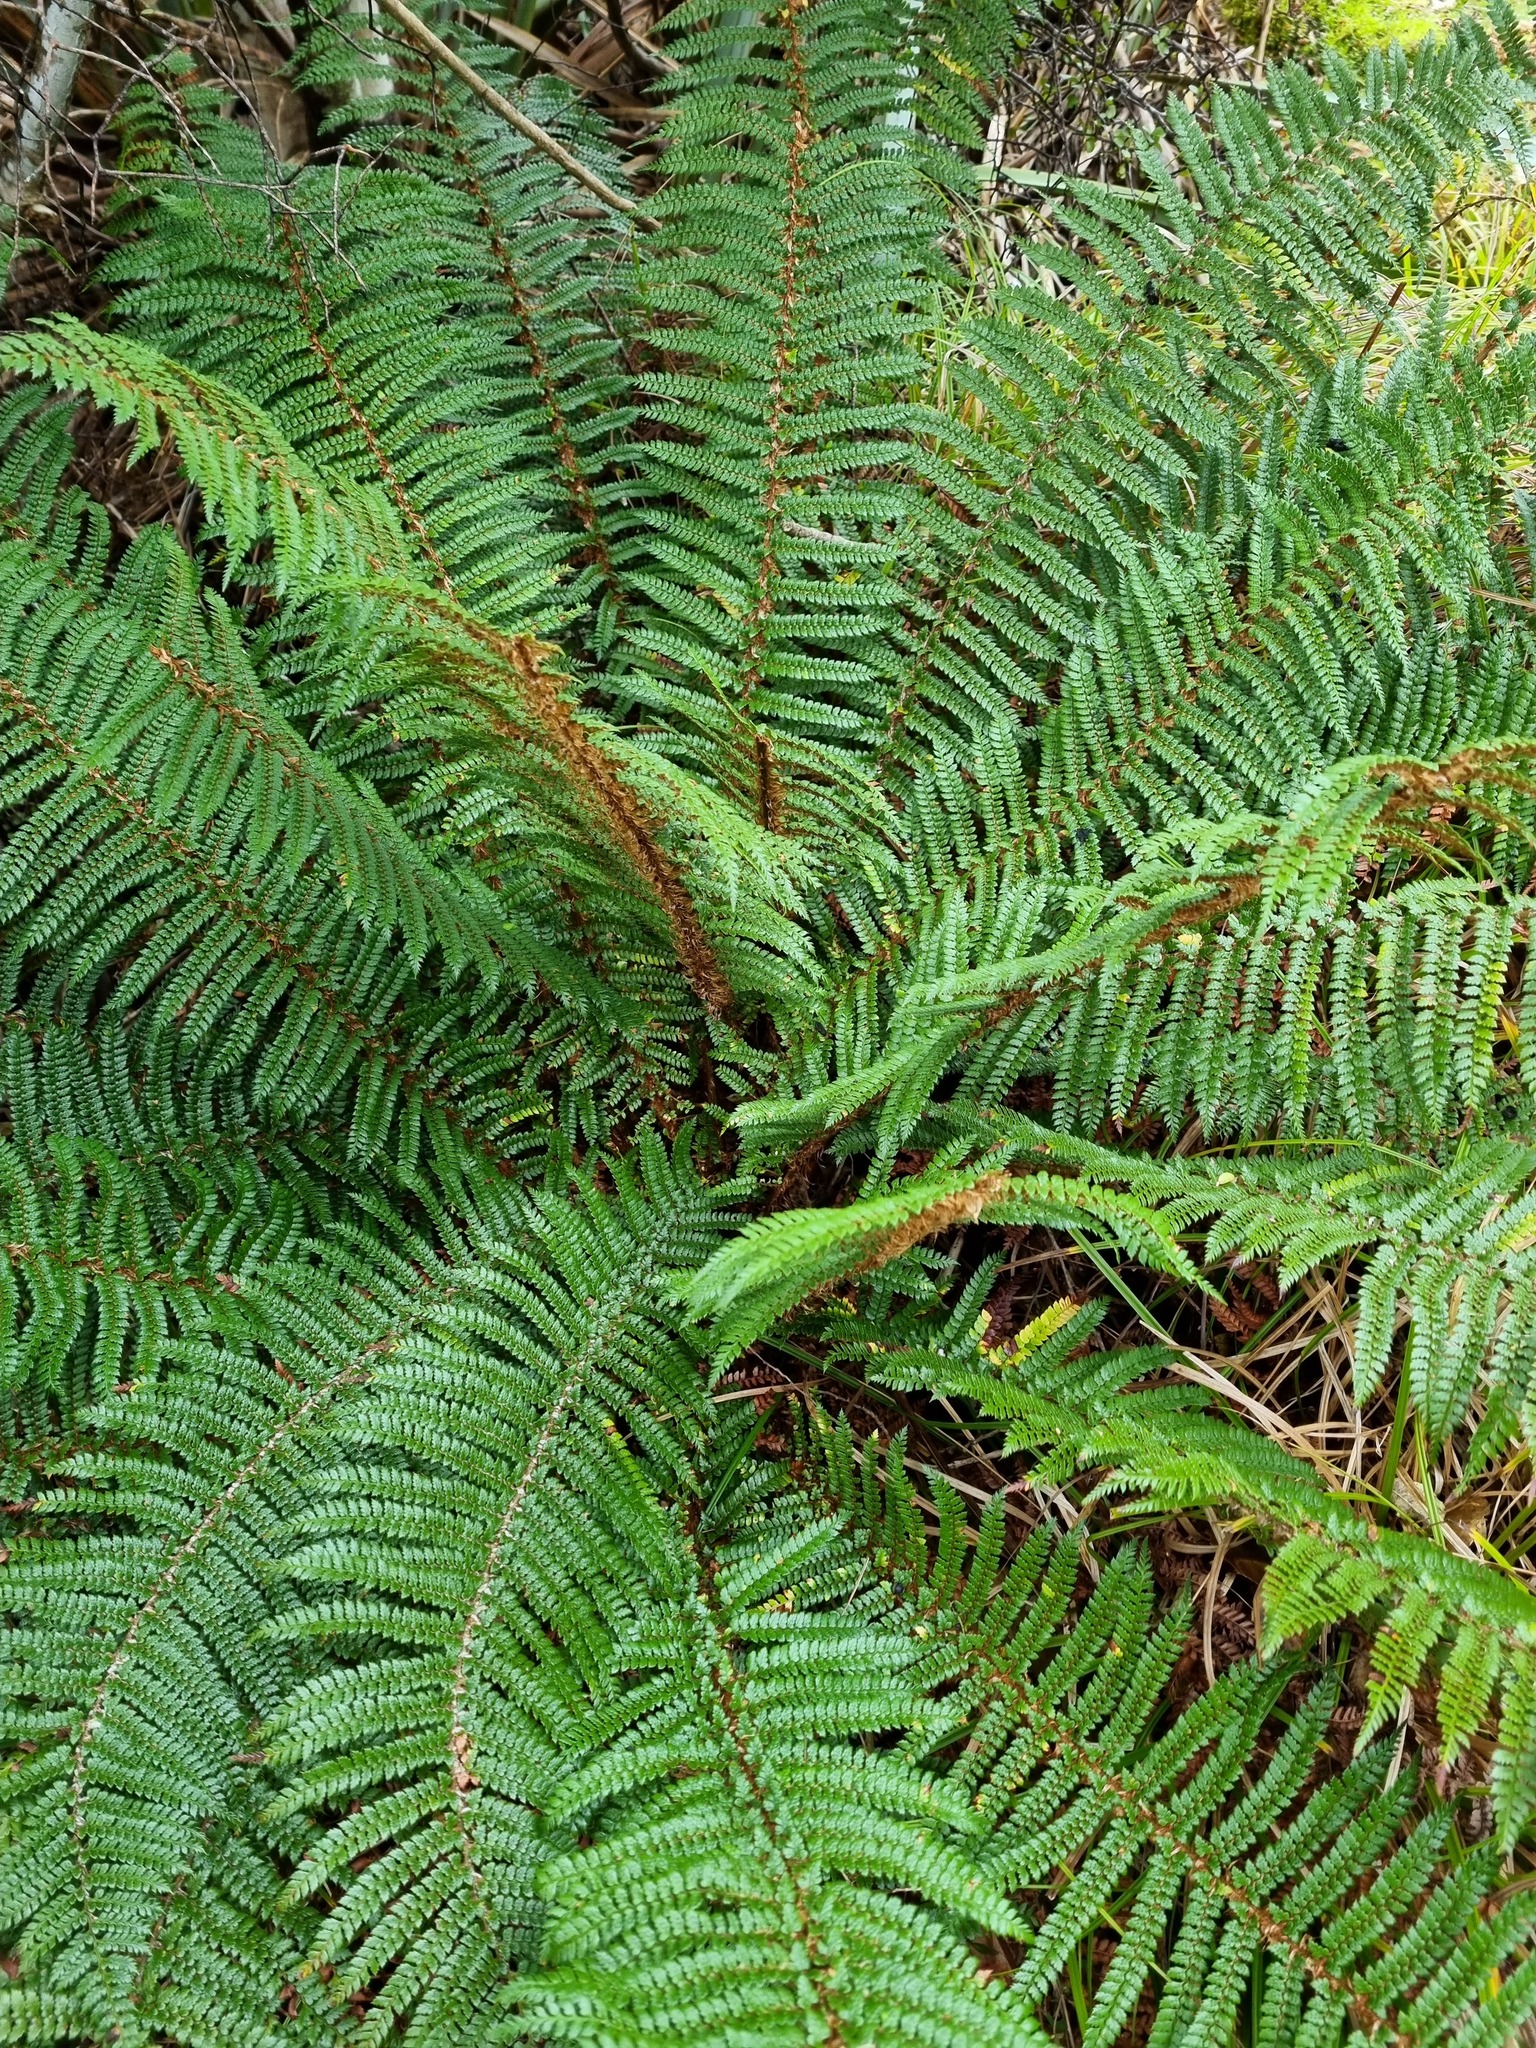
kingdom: Plantae
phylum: Tracheophyta
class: Polypodiopsida
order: Polypodiales
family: Dryopteridaceae
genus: Polystichum
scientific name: Polystichum vestitum
